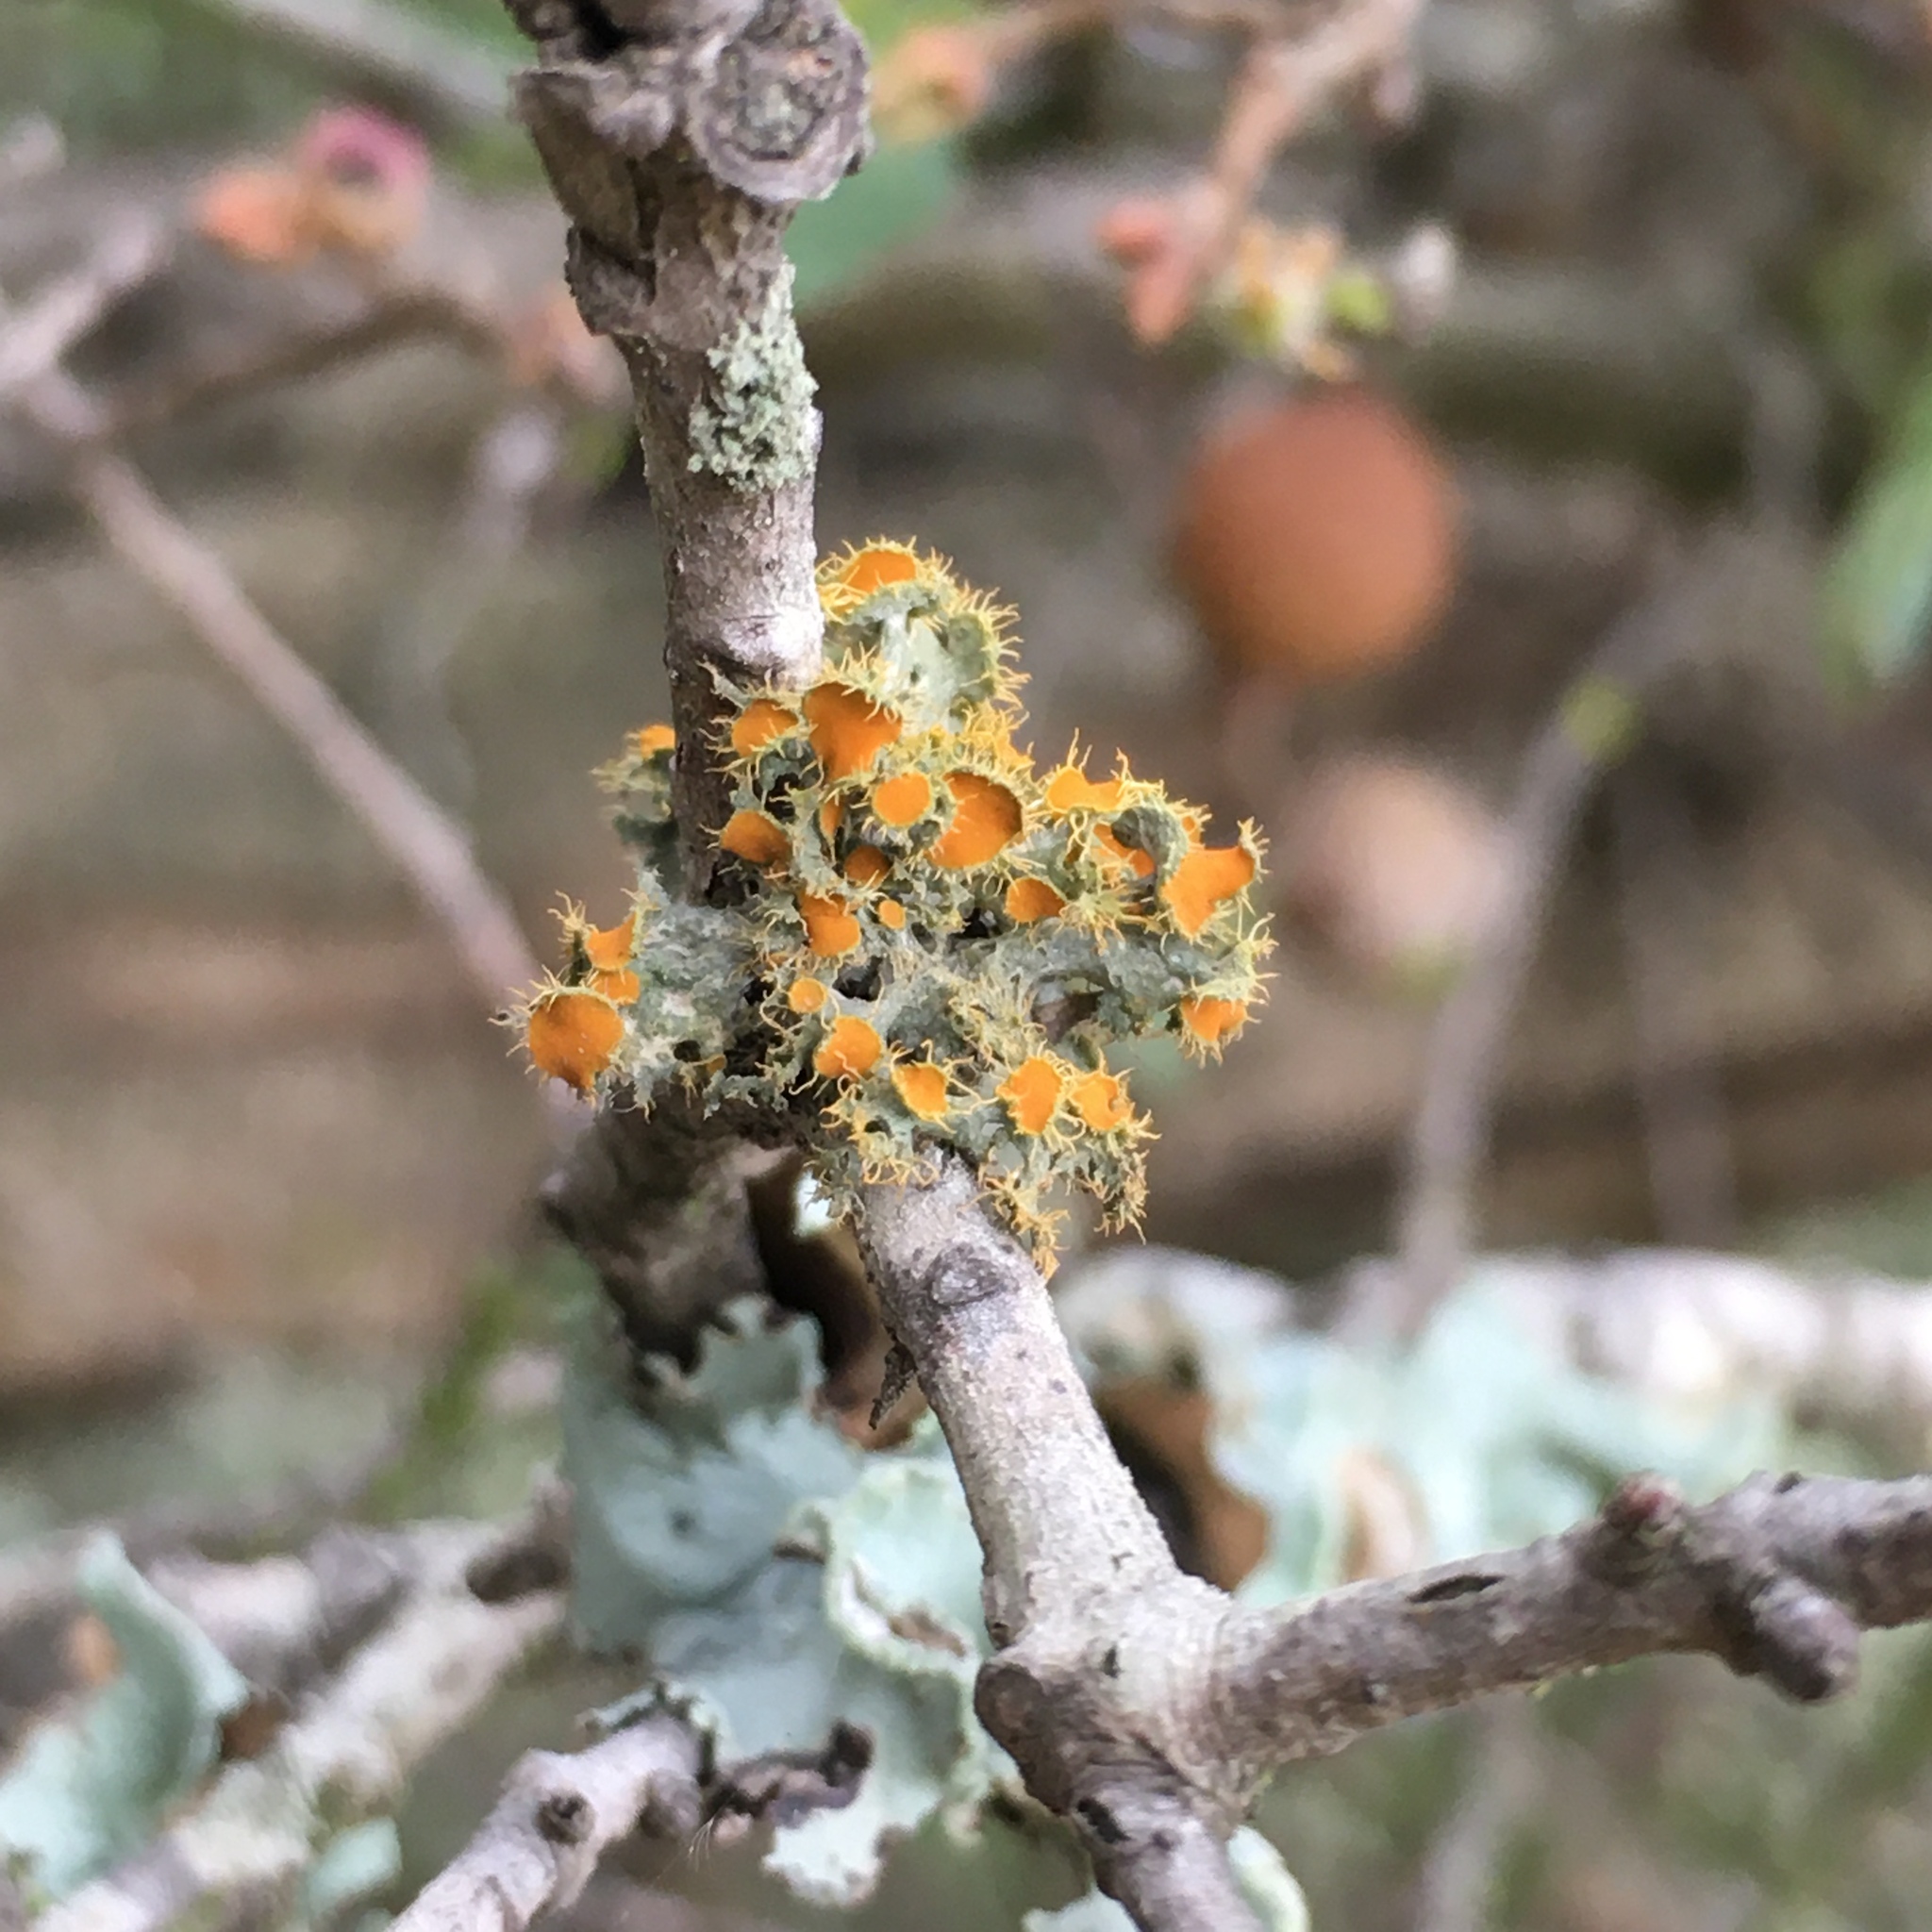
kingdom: Fungi
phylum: Ascomycota
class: Lecanoromycetes
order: Teloschistales
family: Teloschistaceae
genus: Niorma
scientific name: Niorma chrysophthalma
